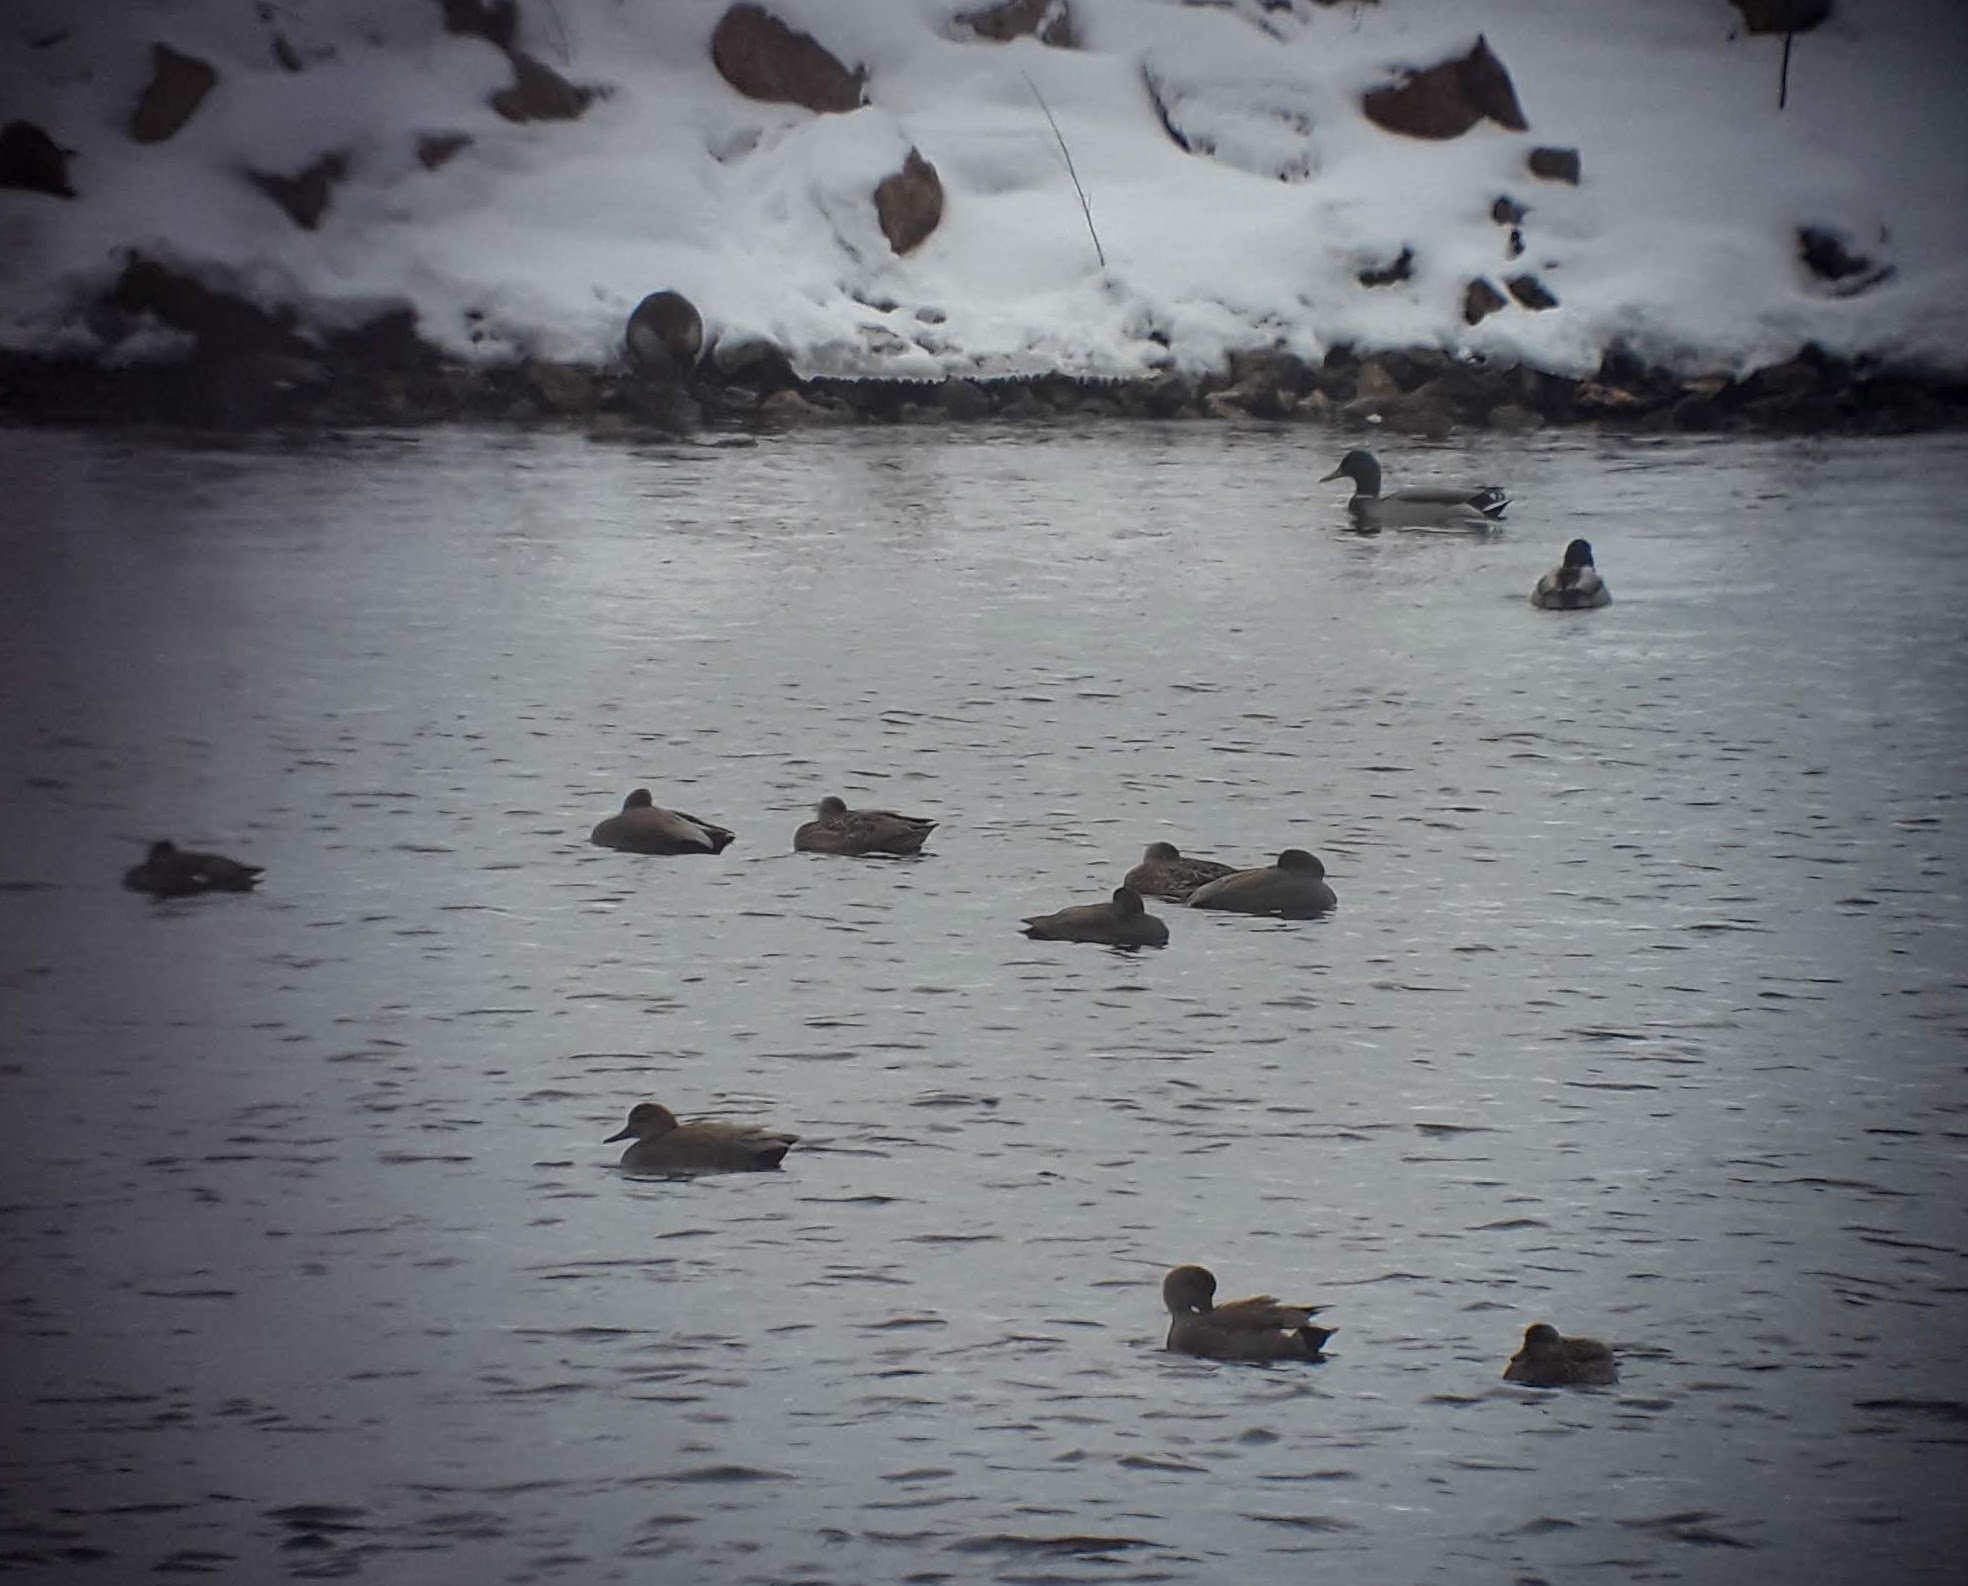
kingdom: Animalia
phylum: Chordata
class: Aves
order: Anseriformes
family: Anatidae
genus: Mareca
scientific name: Mareca strepera
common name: Gadwall
